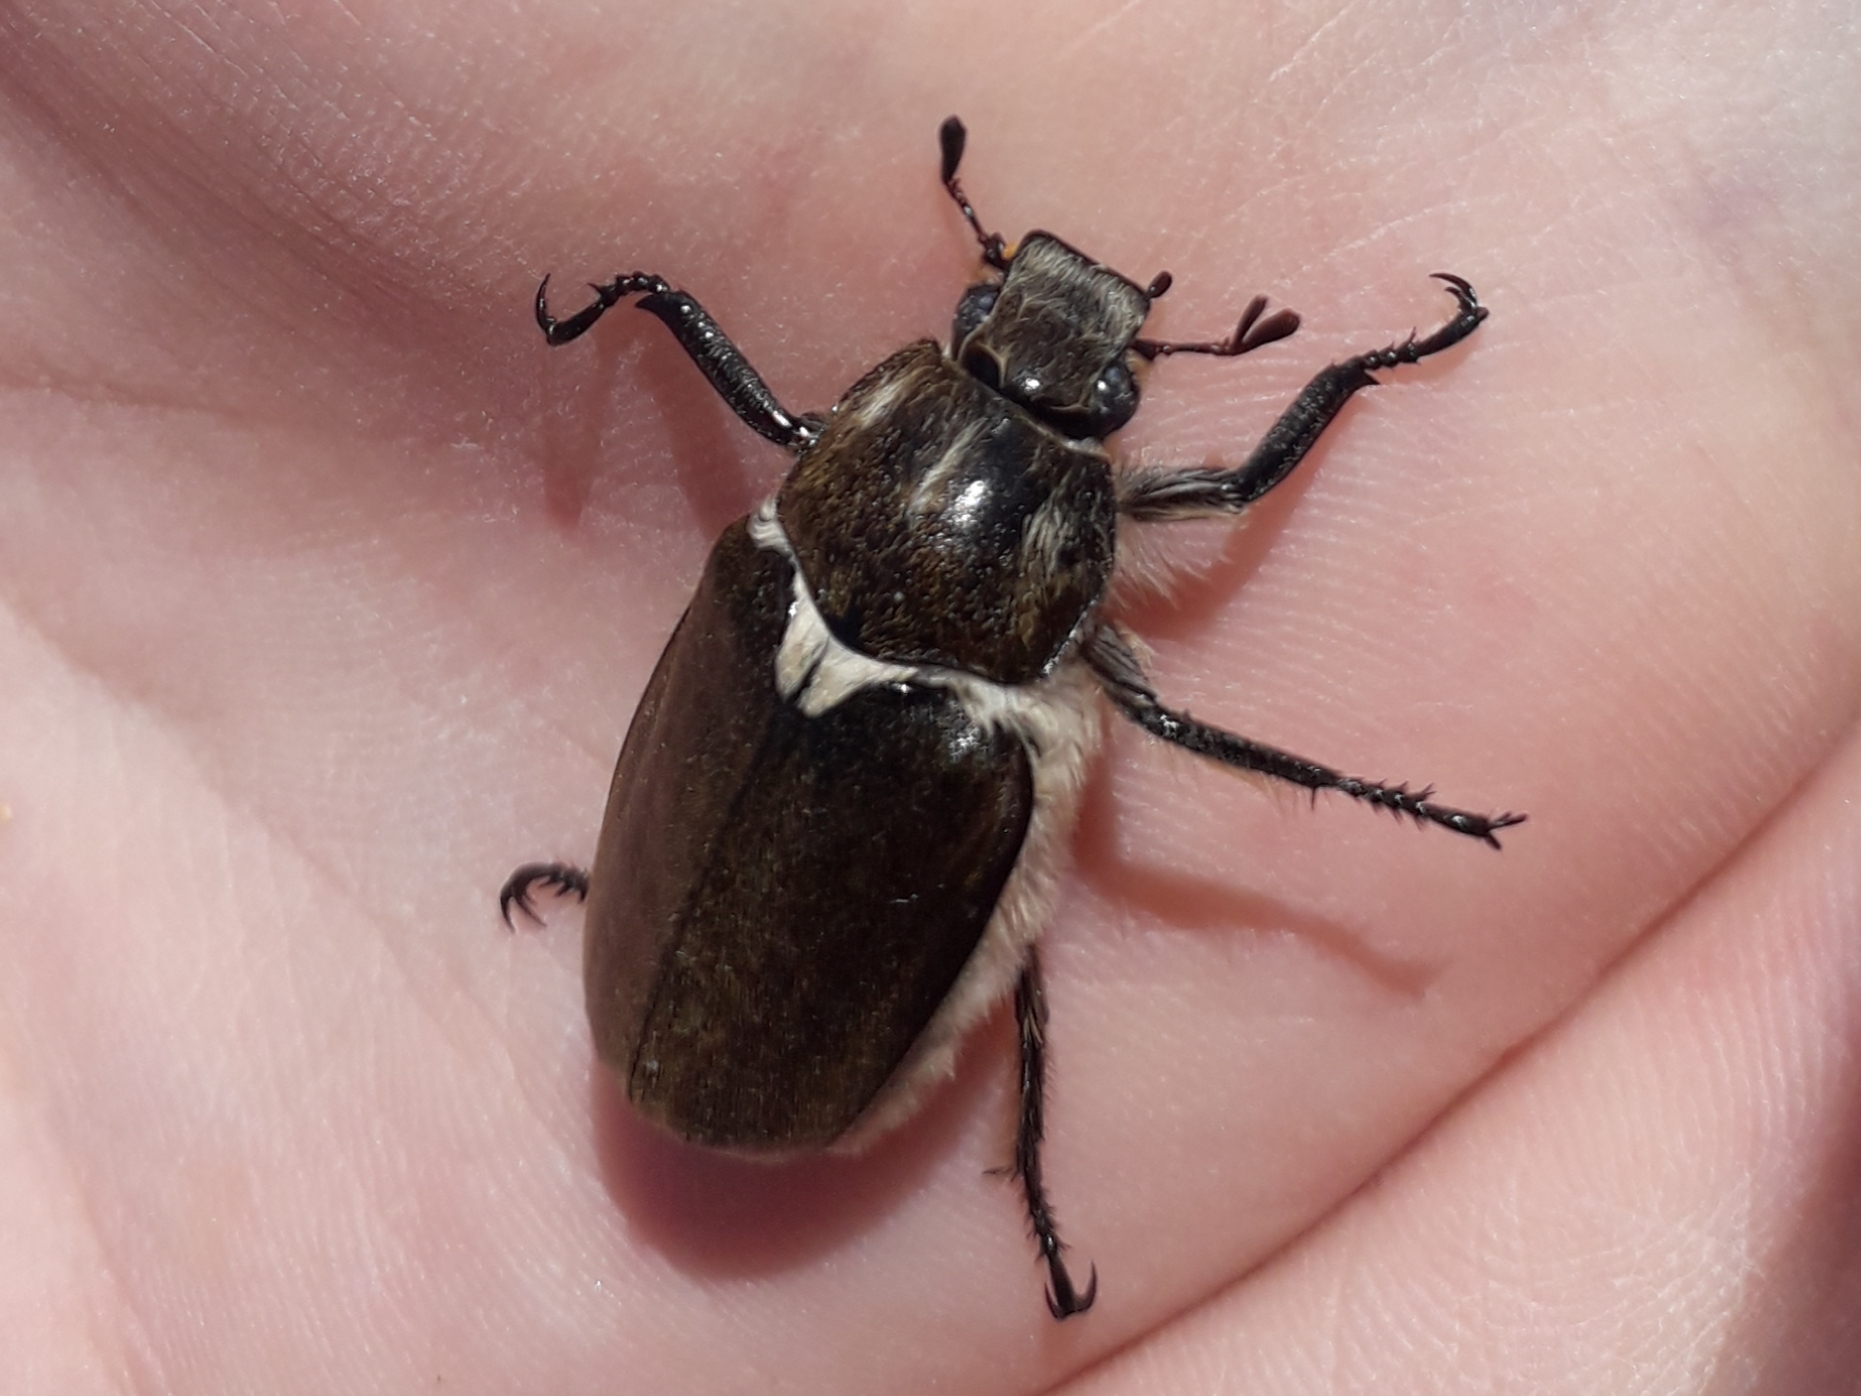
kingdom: Animalia
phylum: Arthropoda
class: Insecta
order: Coleoptera
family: Scarabaeidae
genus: Anoxia
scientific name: Anoxia villosa
